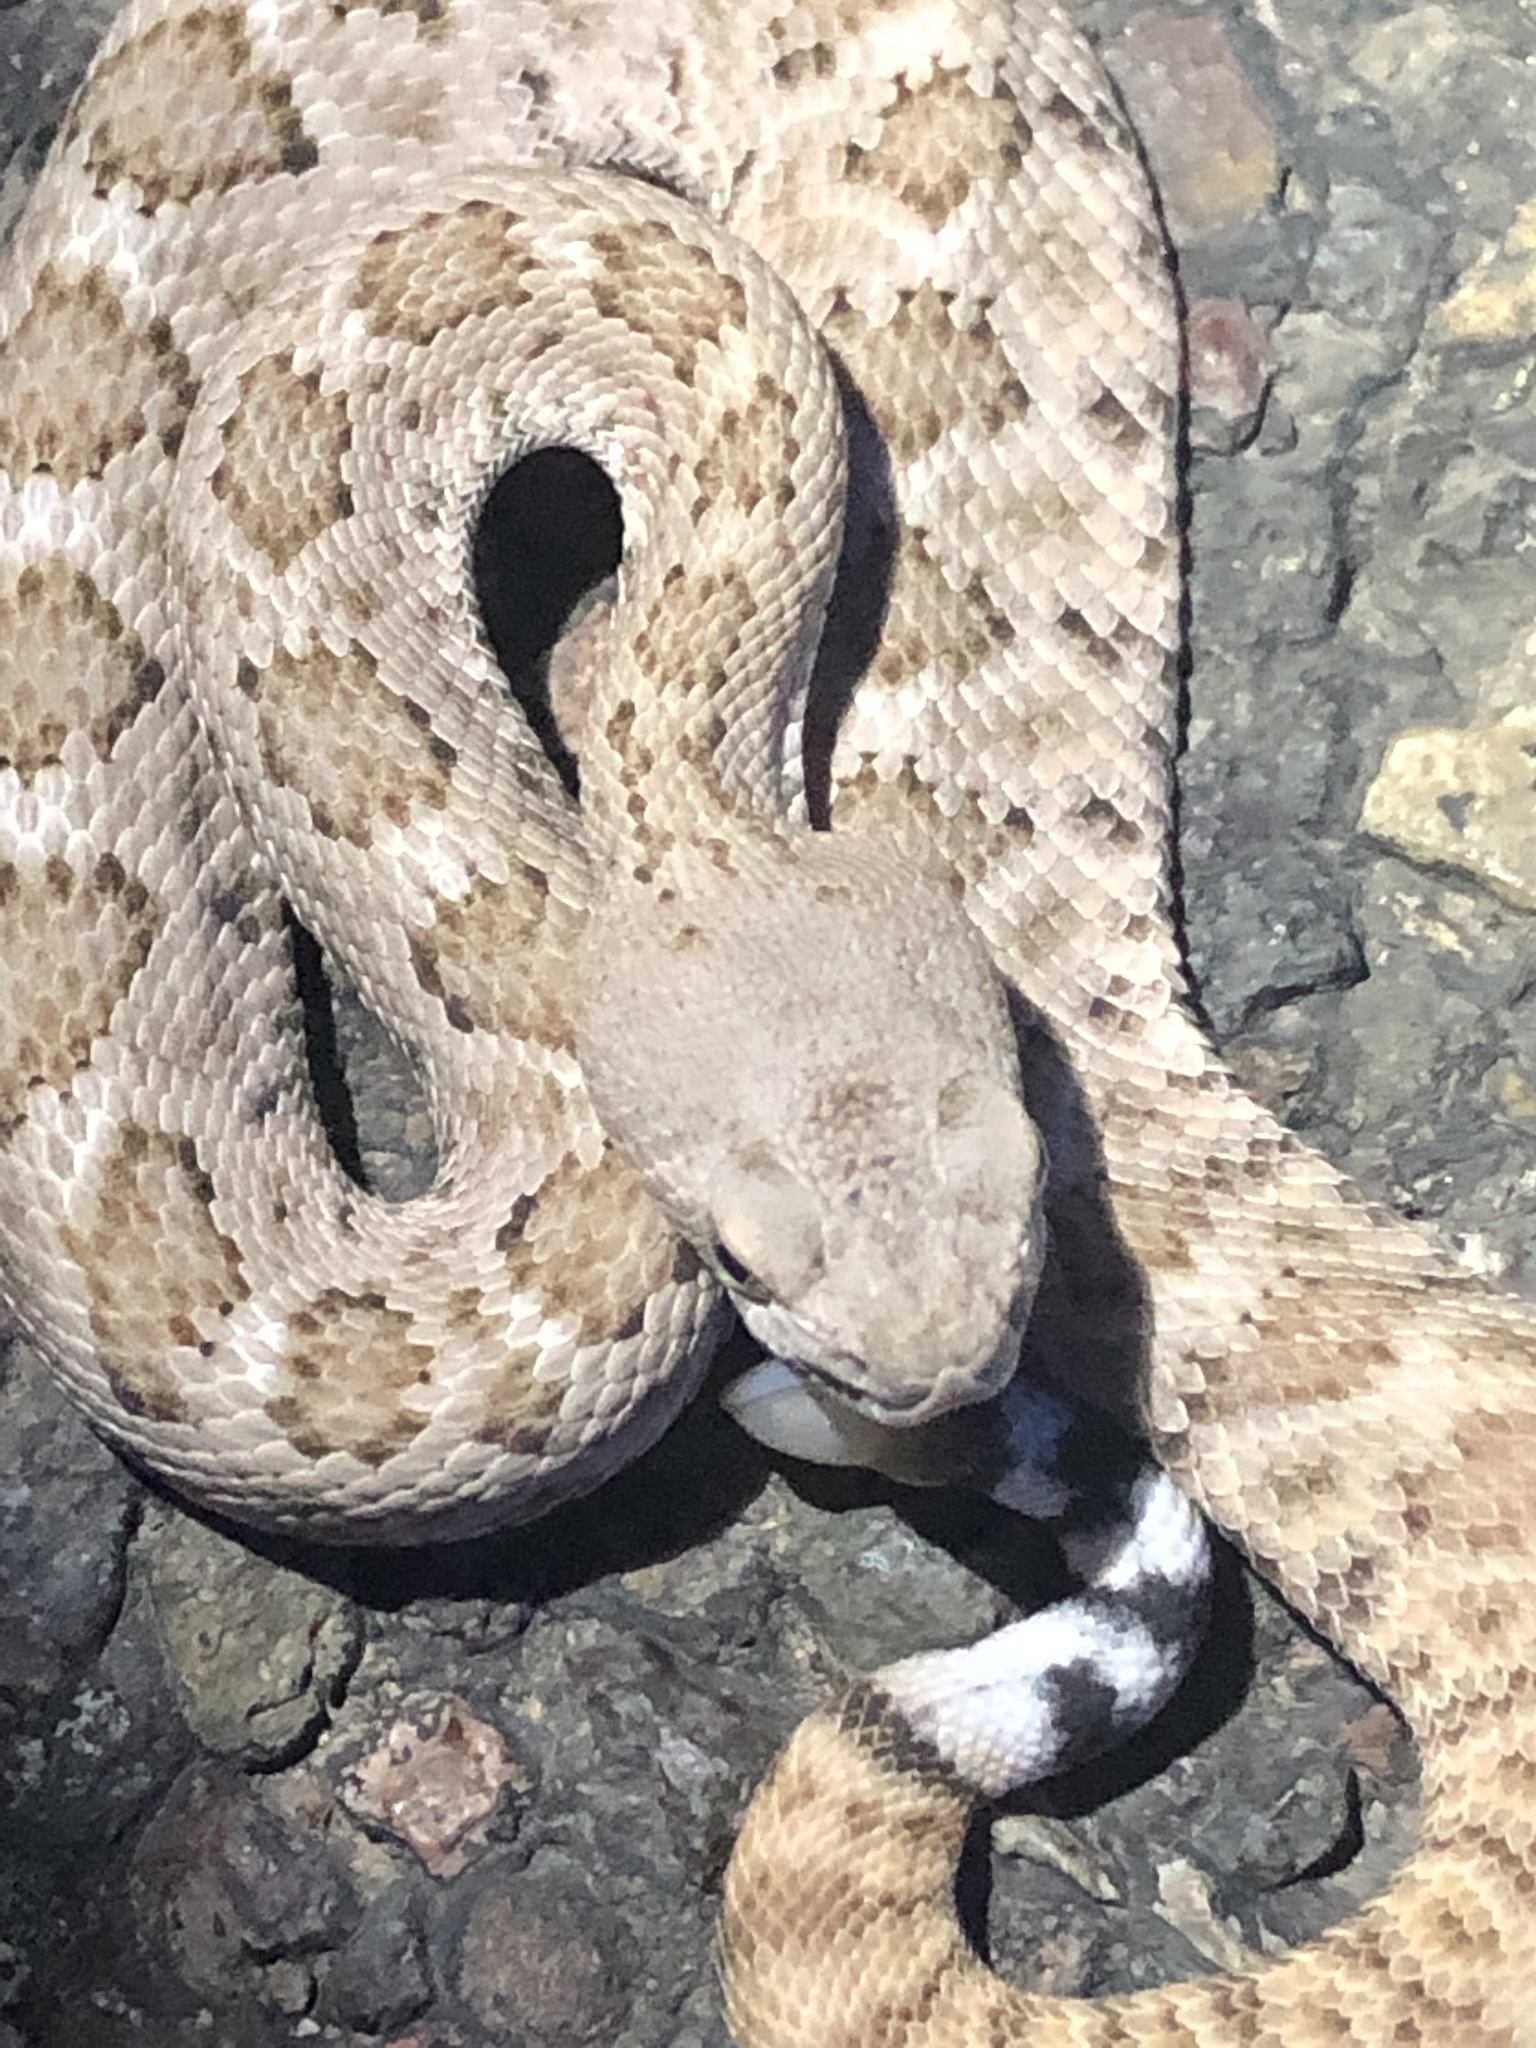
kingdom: Animalia
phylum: Chordata
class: Squamata
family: Viperidae
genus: Crotalus
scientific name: Crotalus atrox
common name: Western diamond-backed rattlesnake
